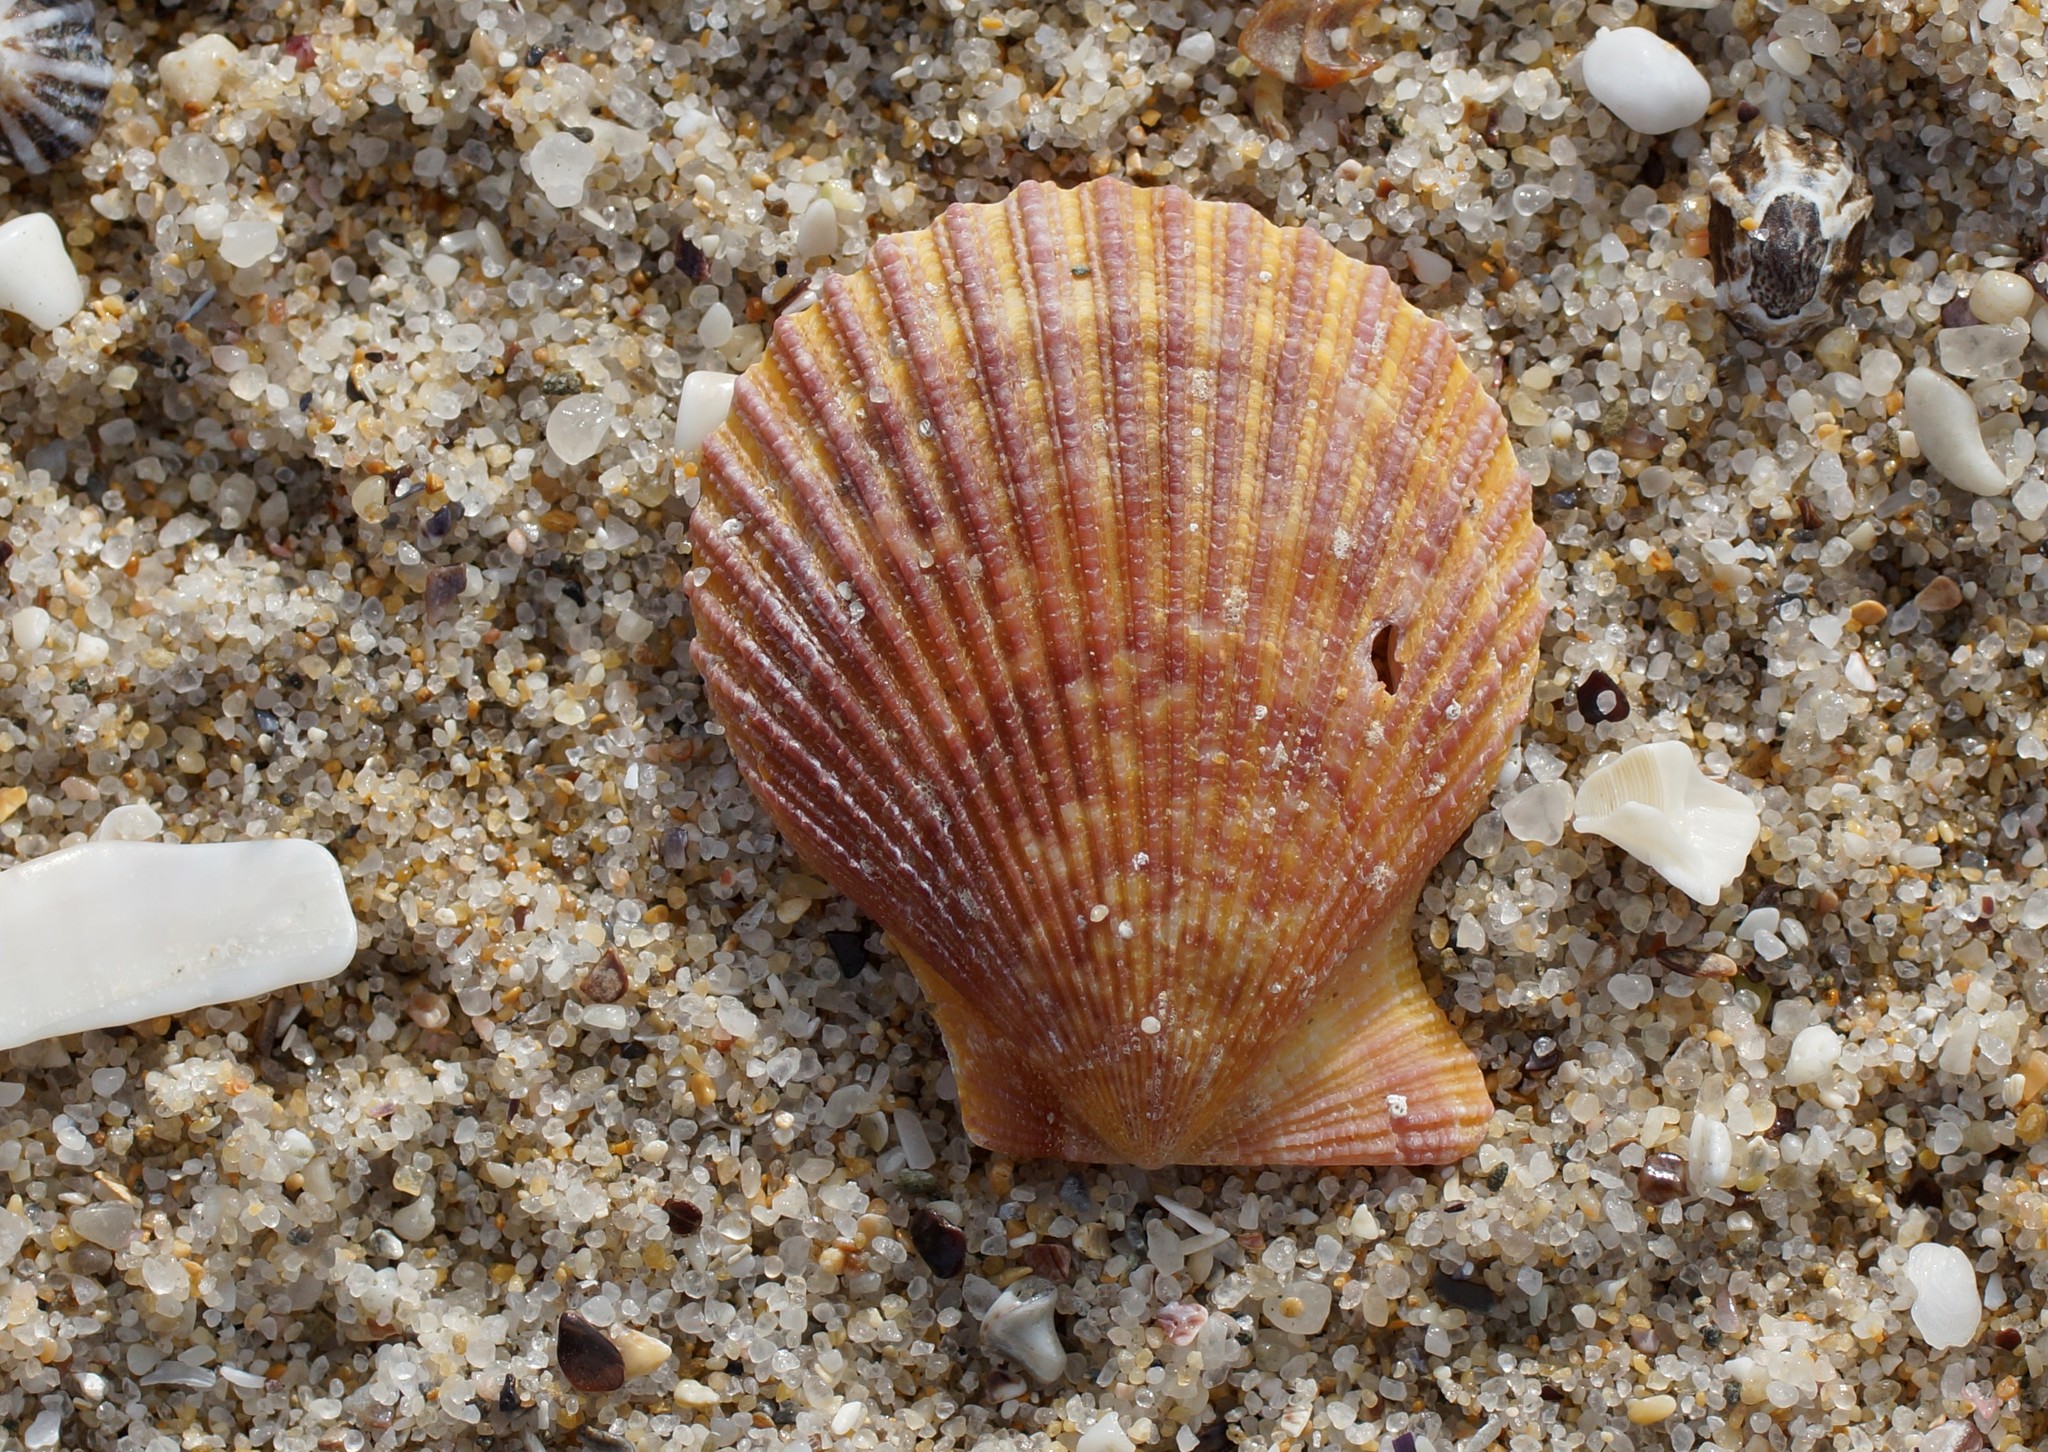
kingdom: Animalia
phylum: Mollusca
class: Bivalvia
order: Pectinida
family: Pectinidae
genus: Mimachlamys
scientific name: Mimachlamys asperrima
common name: Austral scallop
